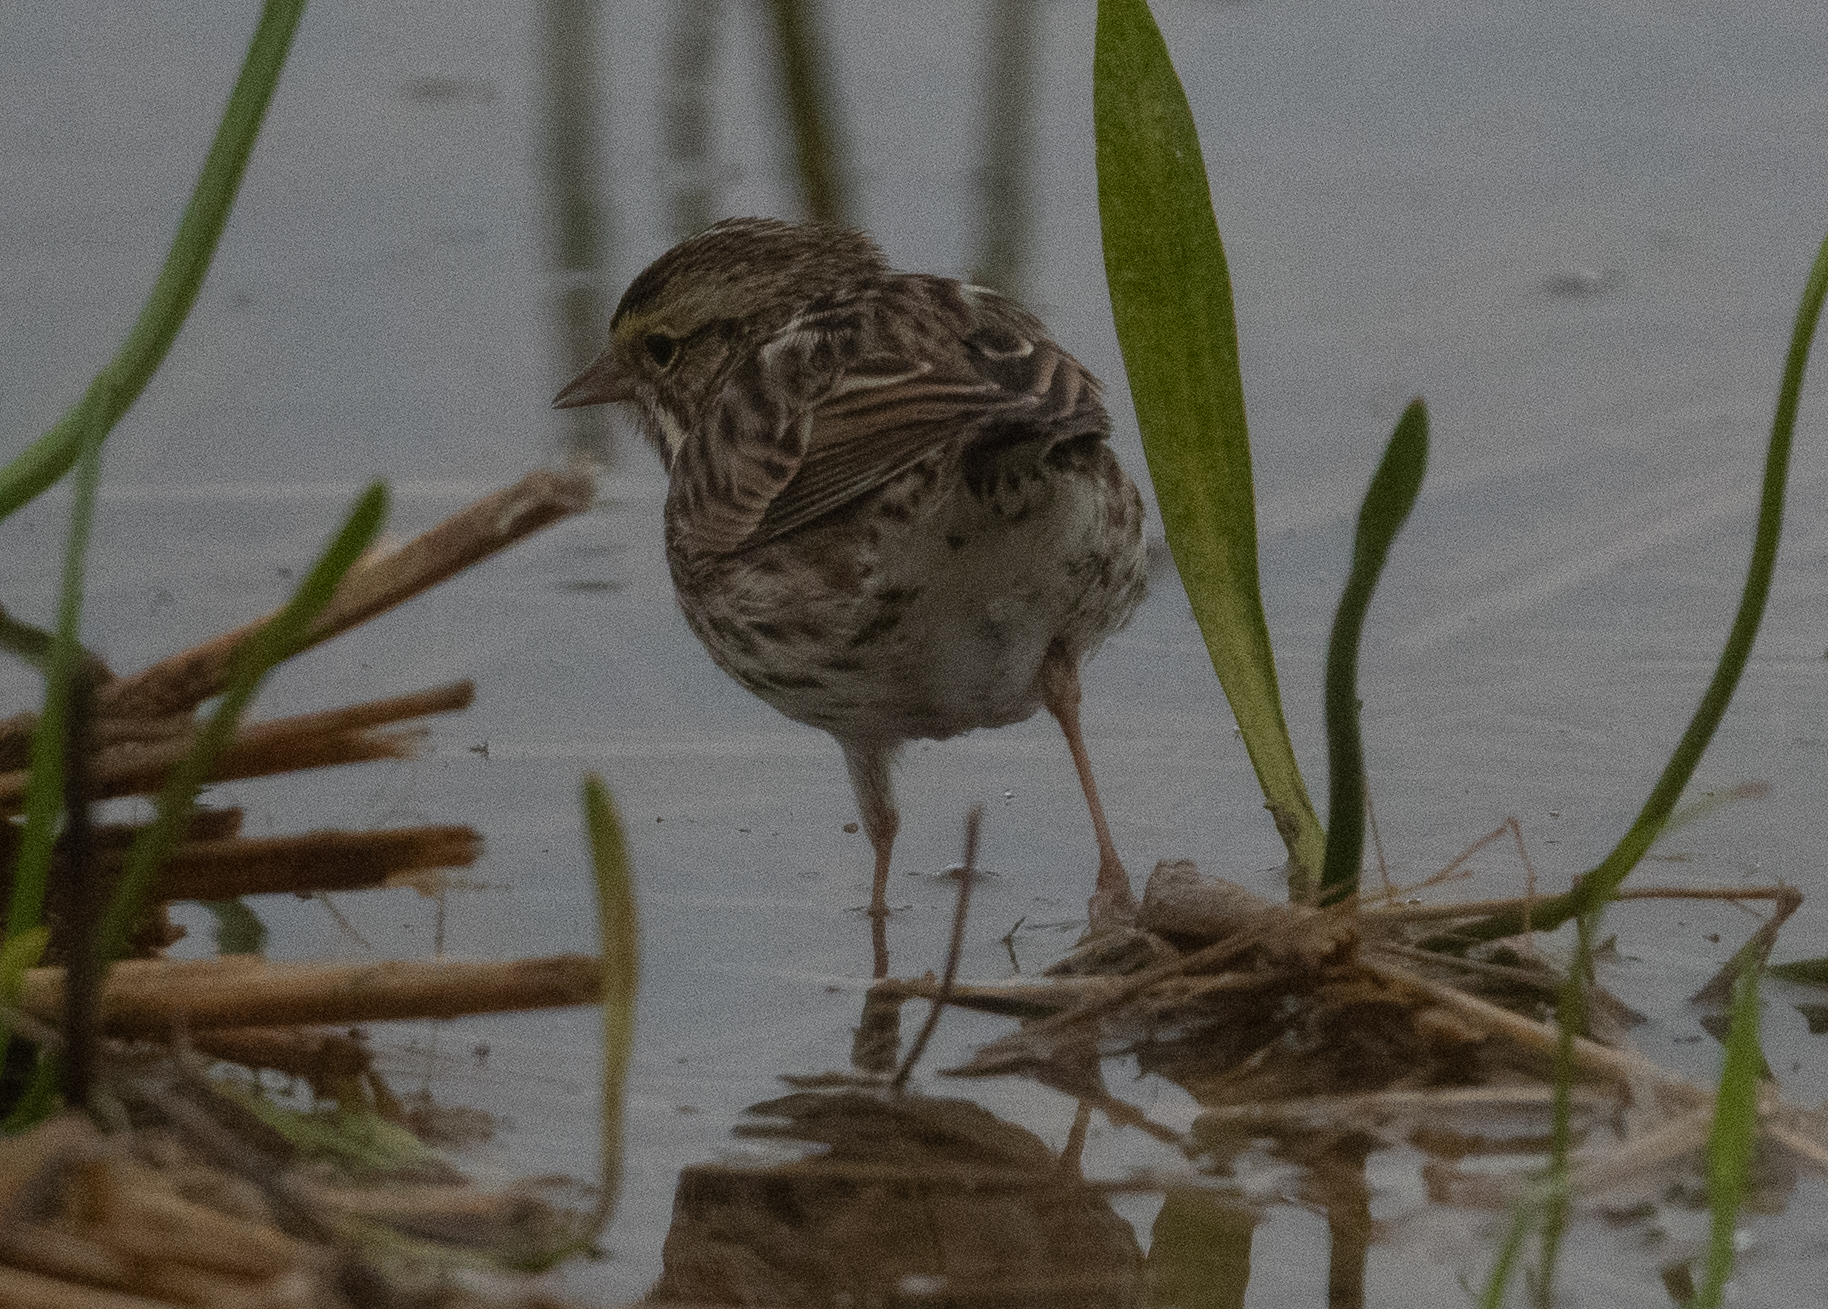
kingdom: Animalia
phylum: Chordata
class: Aves
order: Passeriformes
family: Passerellidae
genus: Passerculus
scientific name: Passerculus sandwichensis
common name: Savannah sparrow
